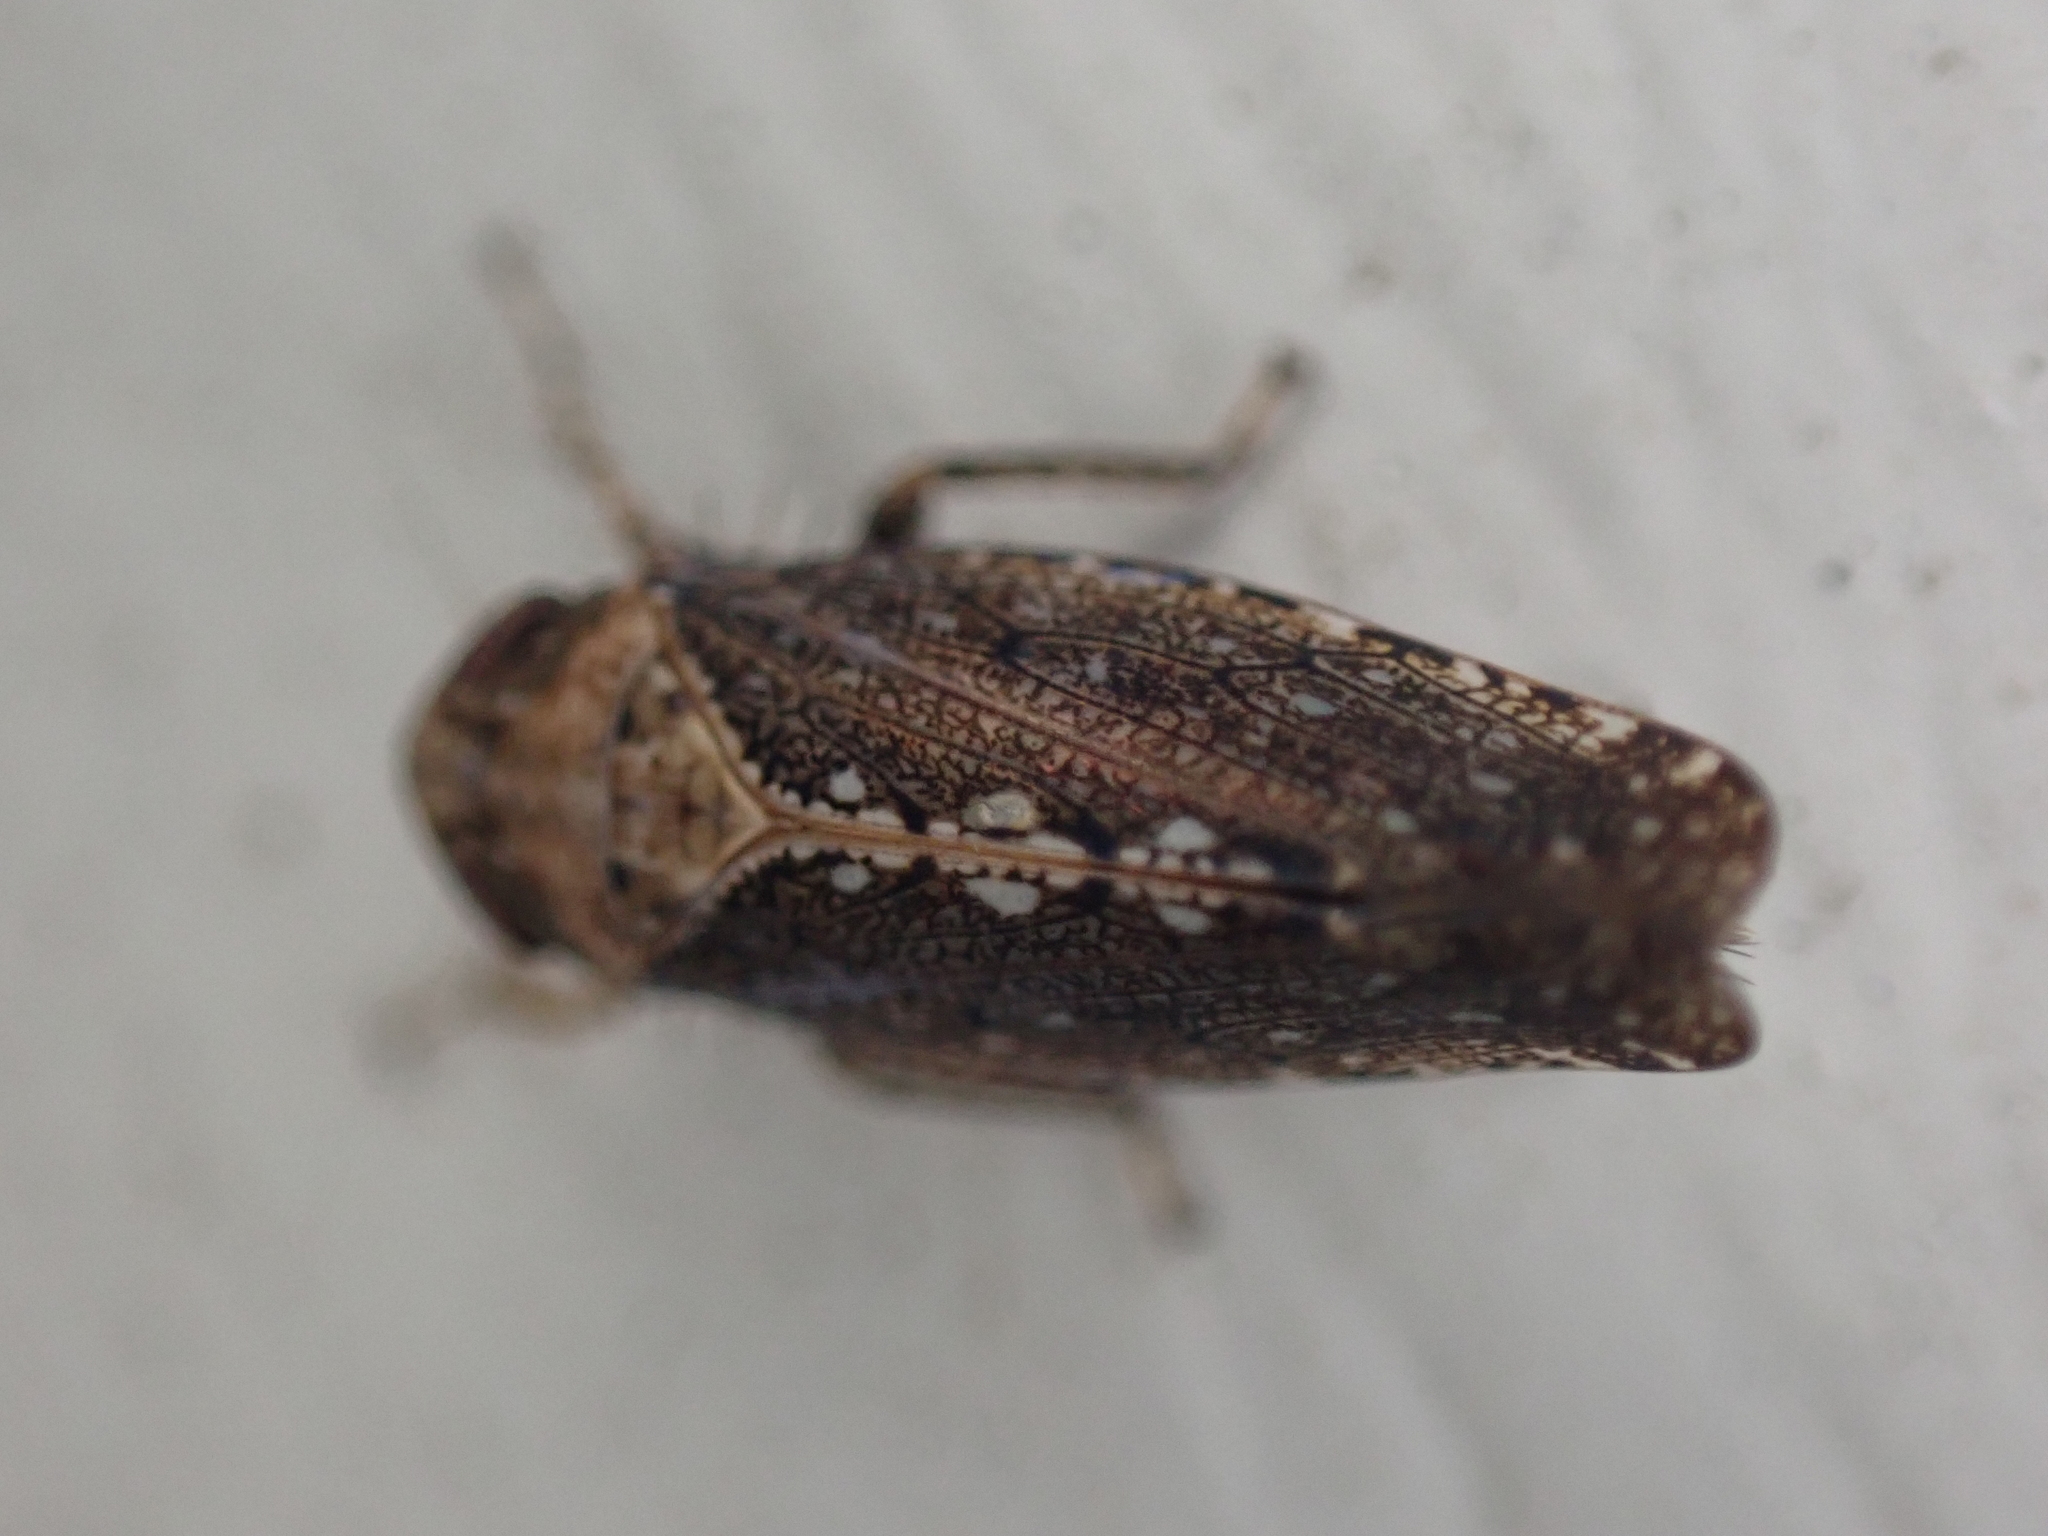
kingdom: Animalia
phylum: Arthropoda
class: Insecta
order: Hemiptera
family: Cicadellidae
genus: Excultanus
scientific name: Excultanus excultus
